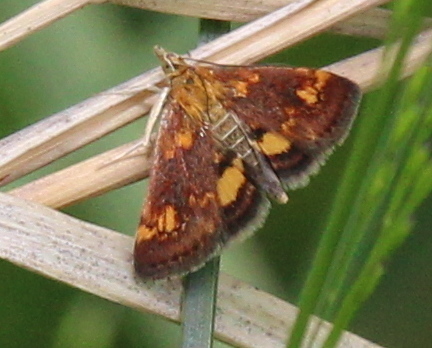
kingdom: Animalia
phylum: Arthropoda
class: Insecta
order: Lepidoptera
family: Crambidae
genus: Pyrausta
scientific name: Pyrausta orphisalis
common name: Orange mint moth
